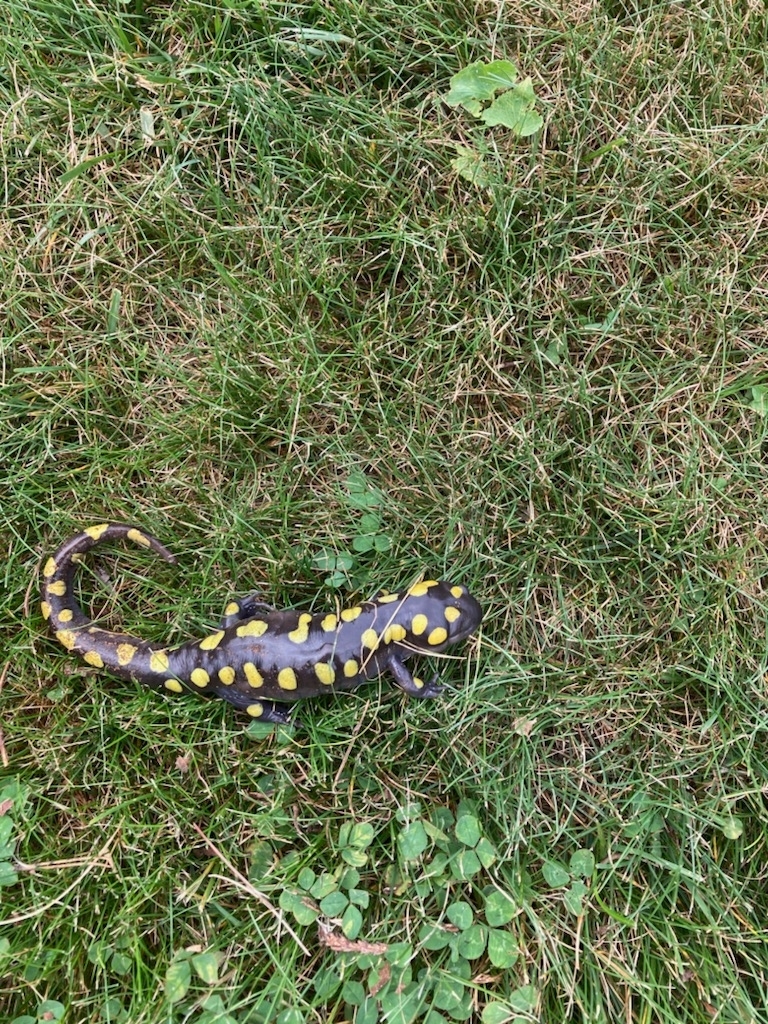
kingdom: Animalia
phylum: Chordata
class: Amphibia
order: Caudata
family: Ambystomatidae
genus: Ambystoma
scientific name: Ambystoma maculatum
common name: Spotted salamander
